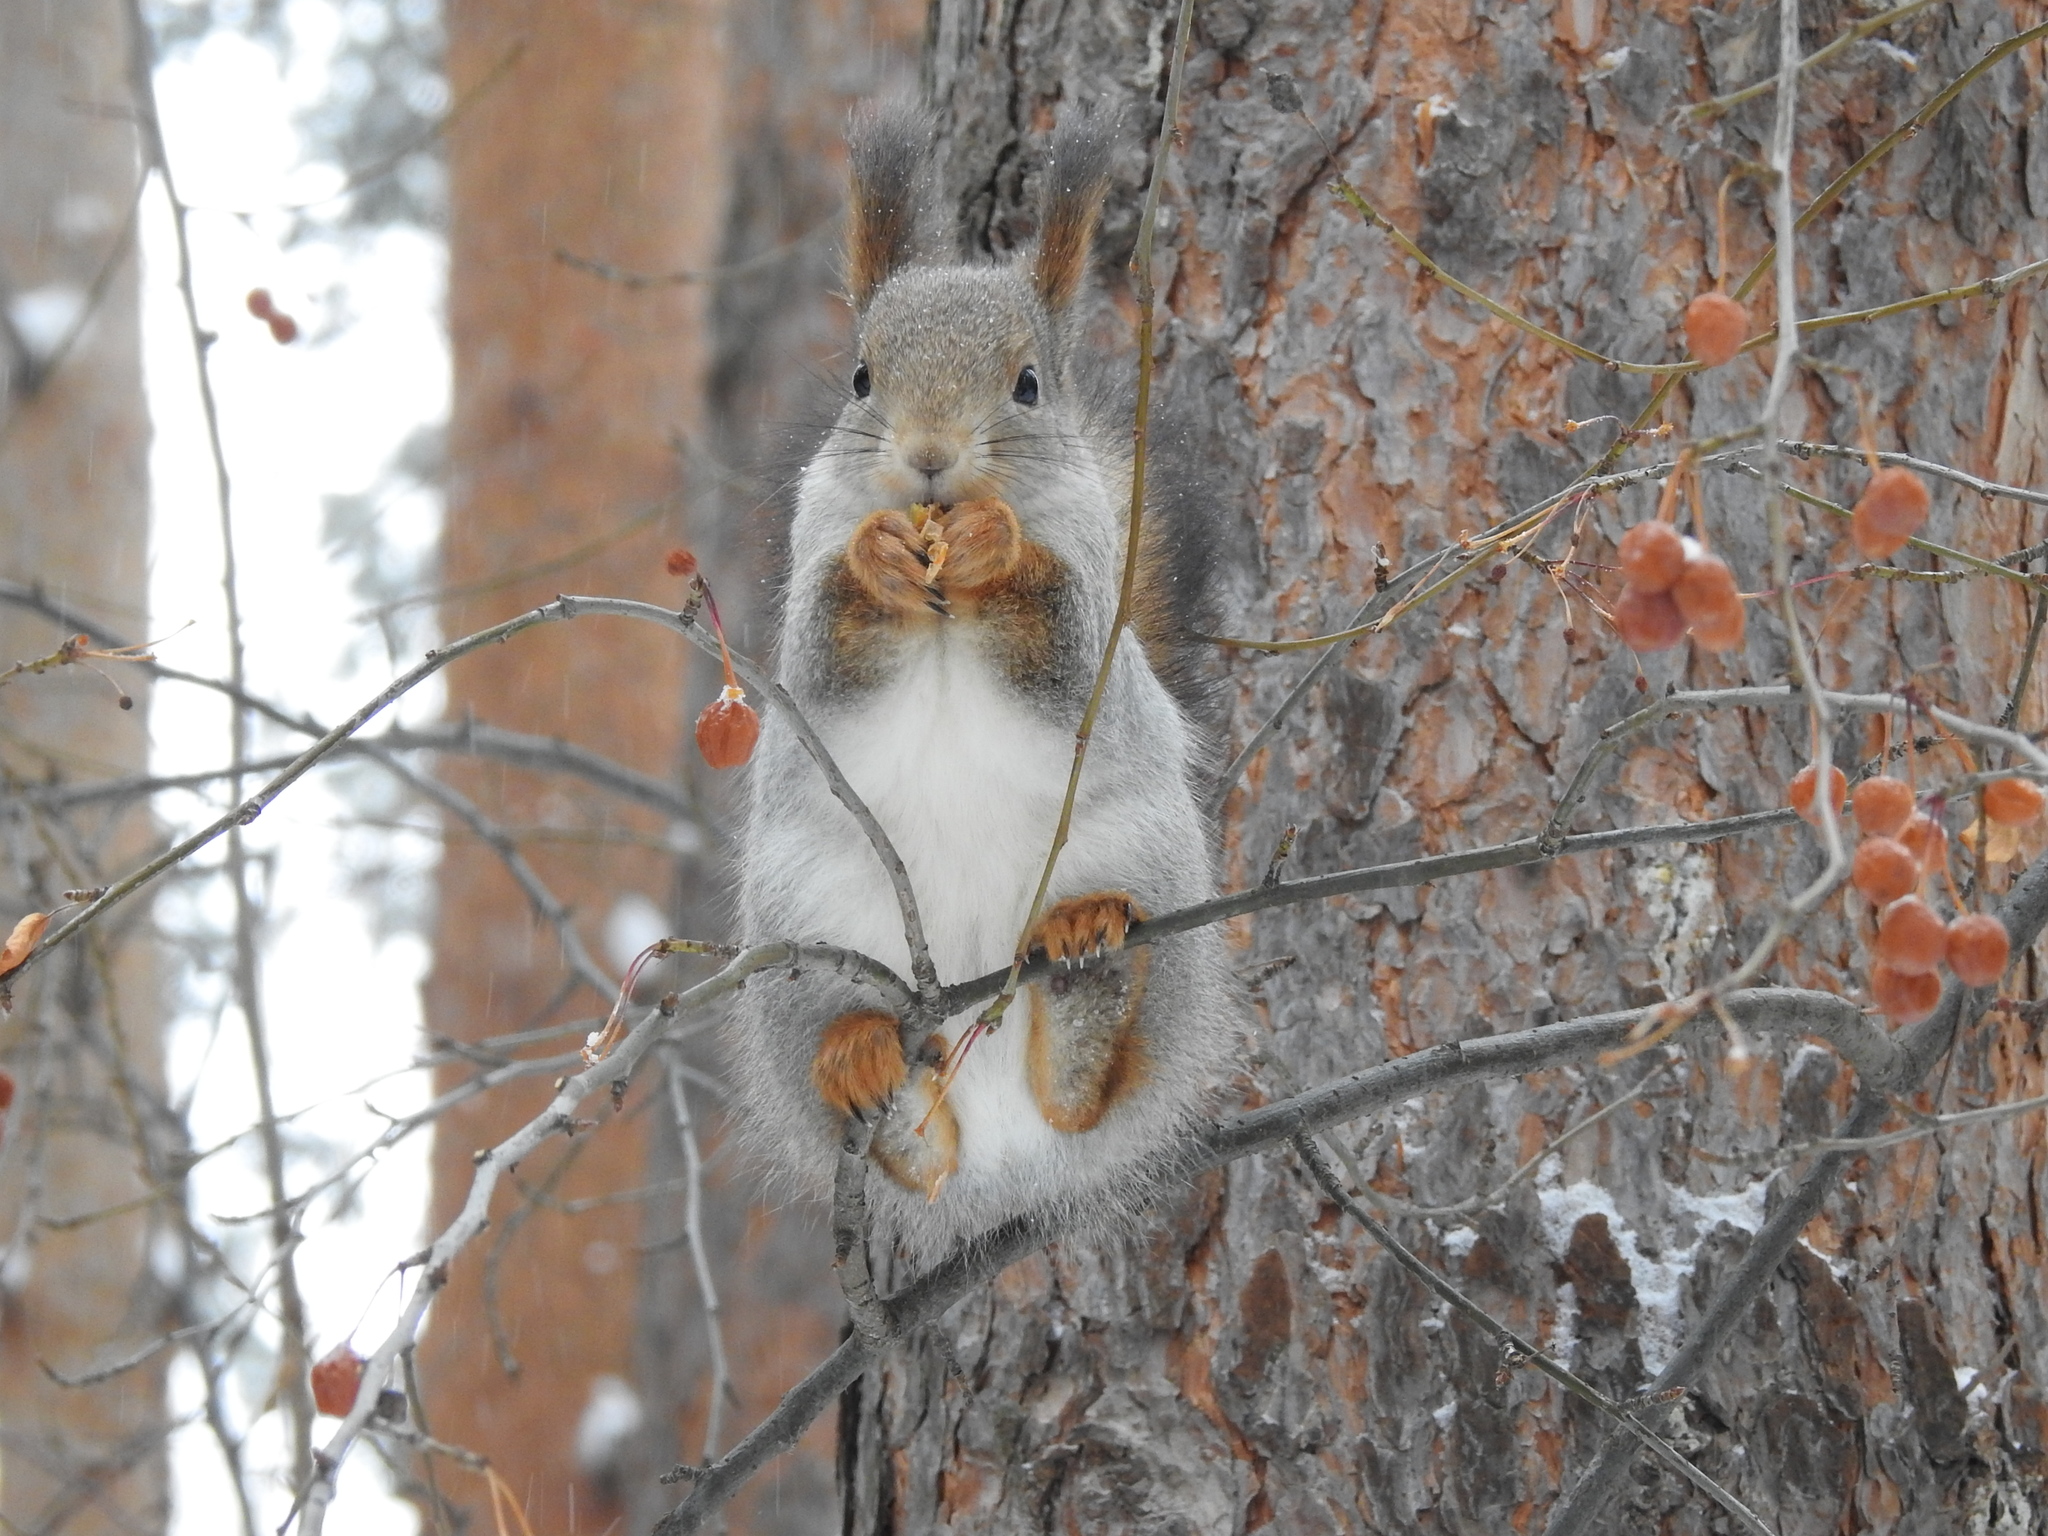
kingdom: Animalia
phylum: Chordata
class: Mammalia
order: Rodentia
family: Sciuridae
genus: Sciurus
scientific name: Sciurus vulgaris
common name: Eurasian red squirrel
